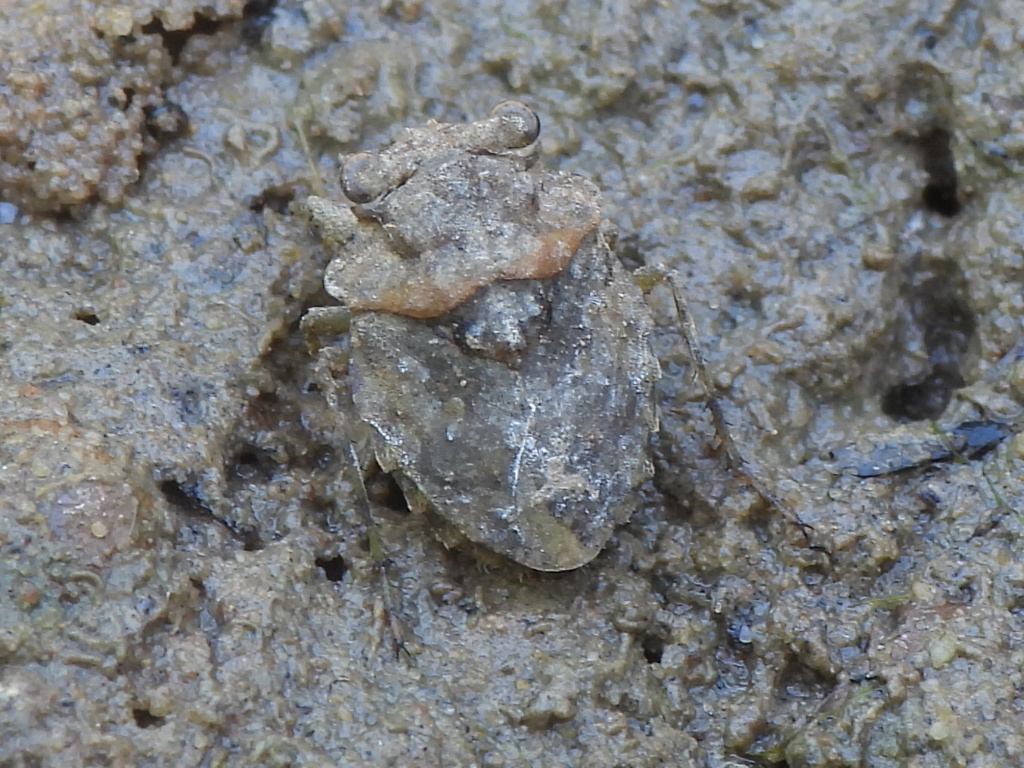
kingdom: Animalia
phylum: Arthropoda
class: Insecta
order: Hemiptera
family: Gelastocoridae
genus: Gelastocoris
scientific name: Gelastocoris oculatus
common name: Toad bug
